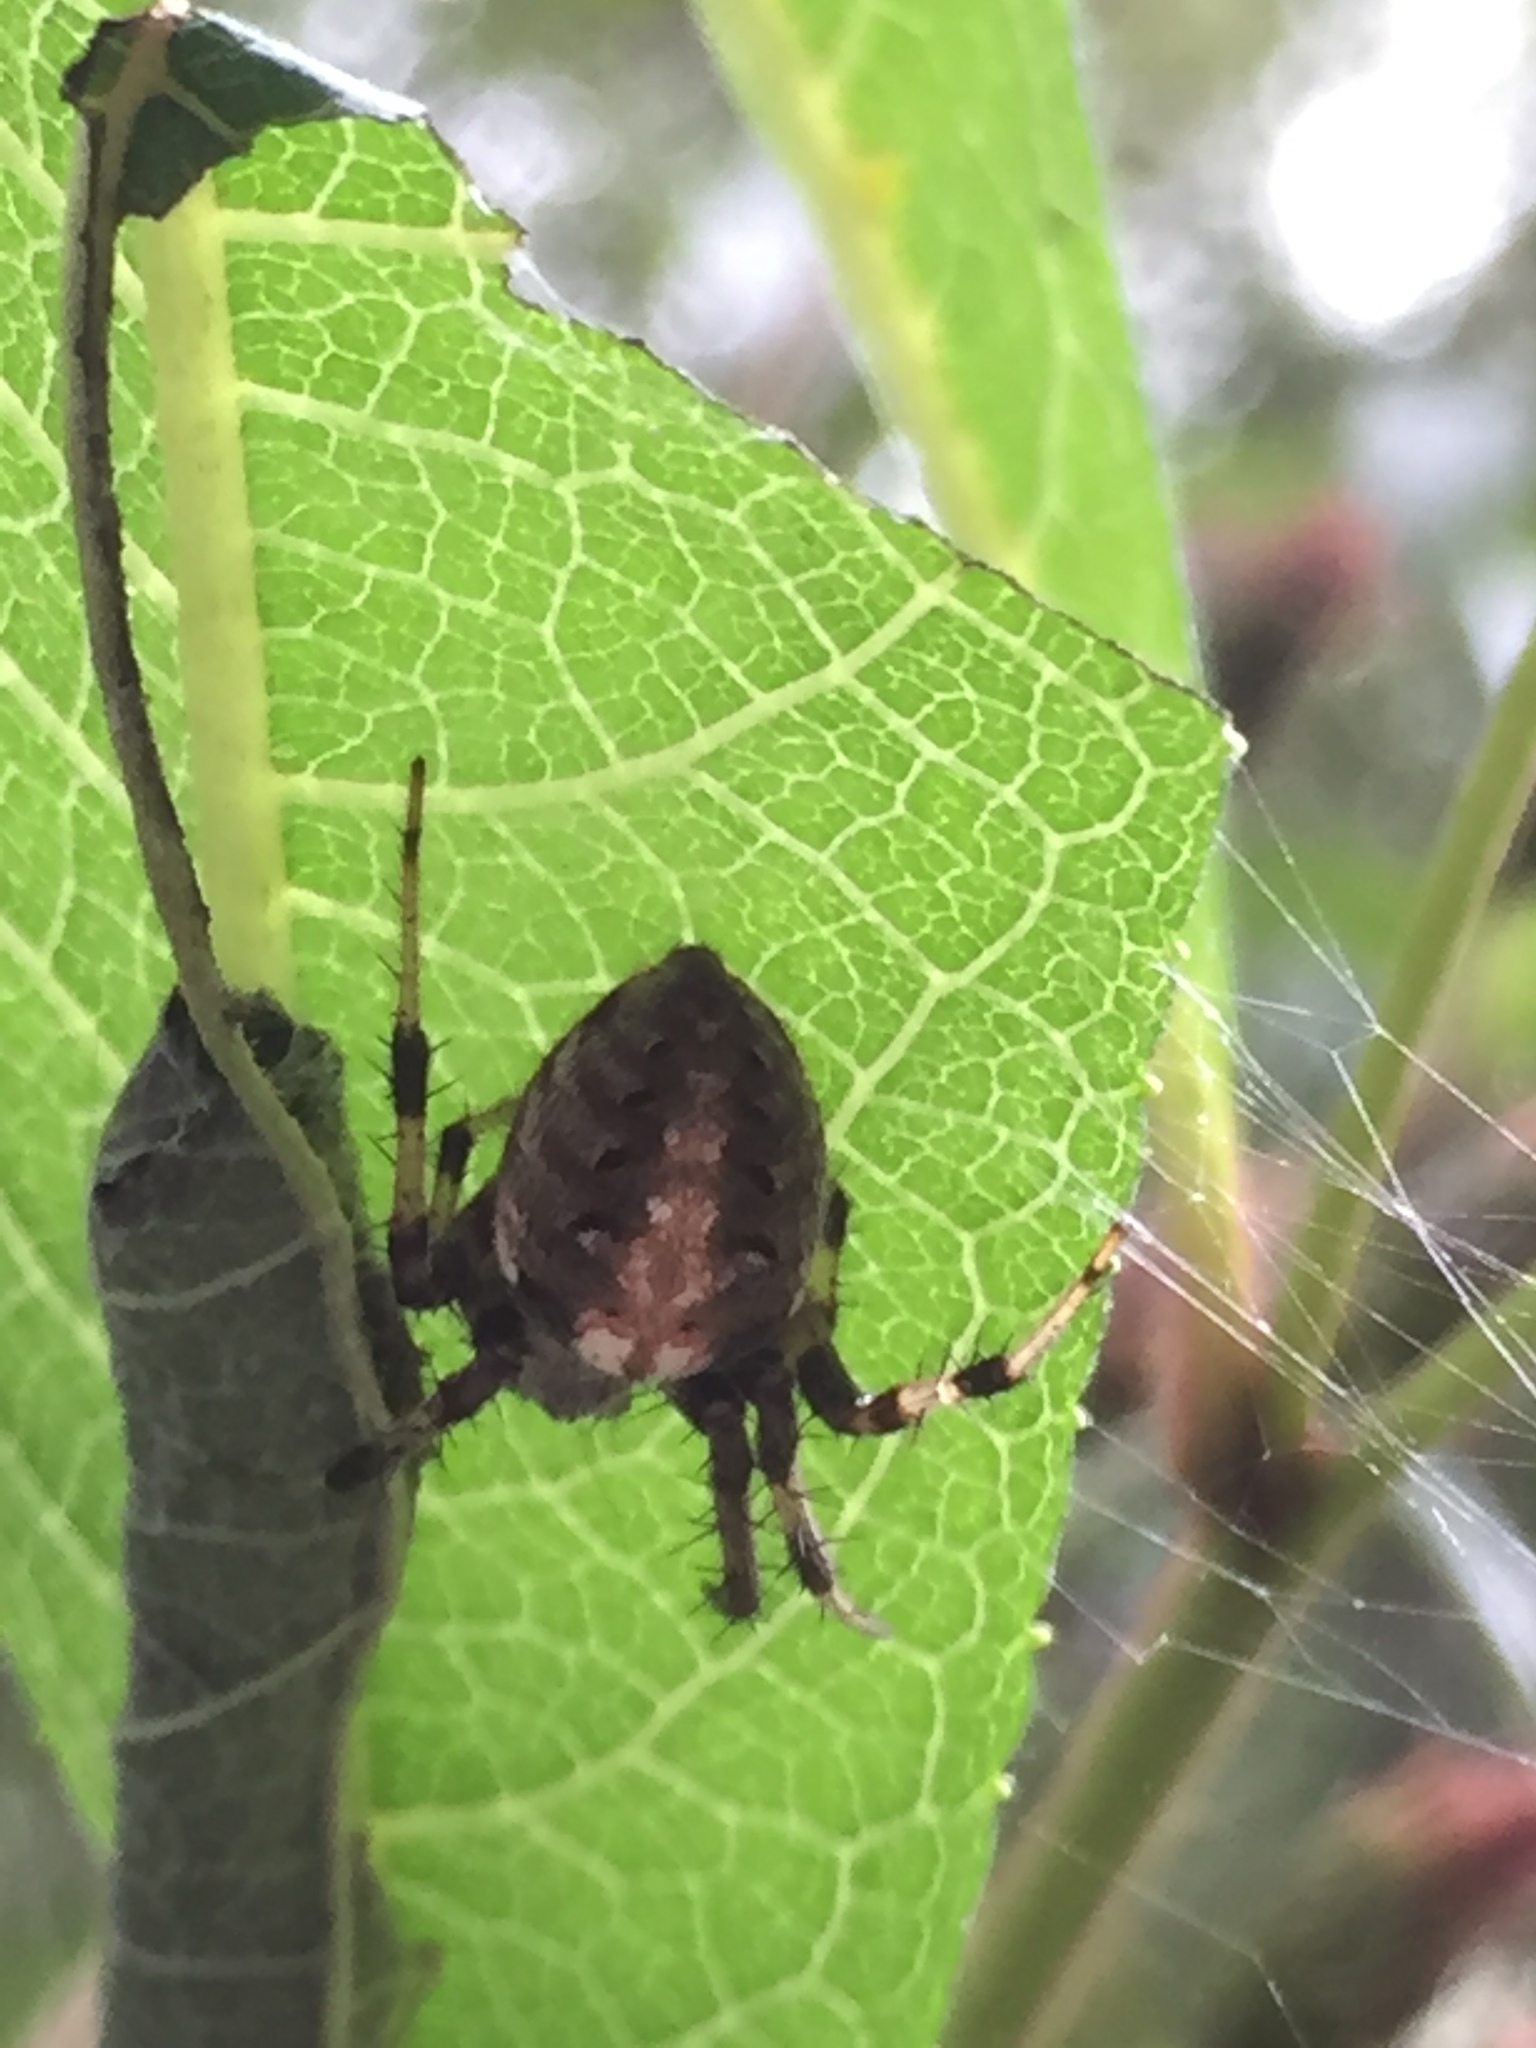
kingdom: Animalia
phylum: Arthropoda
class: Arachnida
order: Araneae
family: Araneidae
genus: Neoscona
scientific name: Neoscona arabesca
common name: Orb weavers
